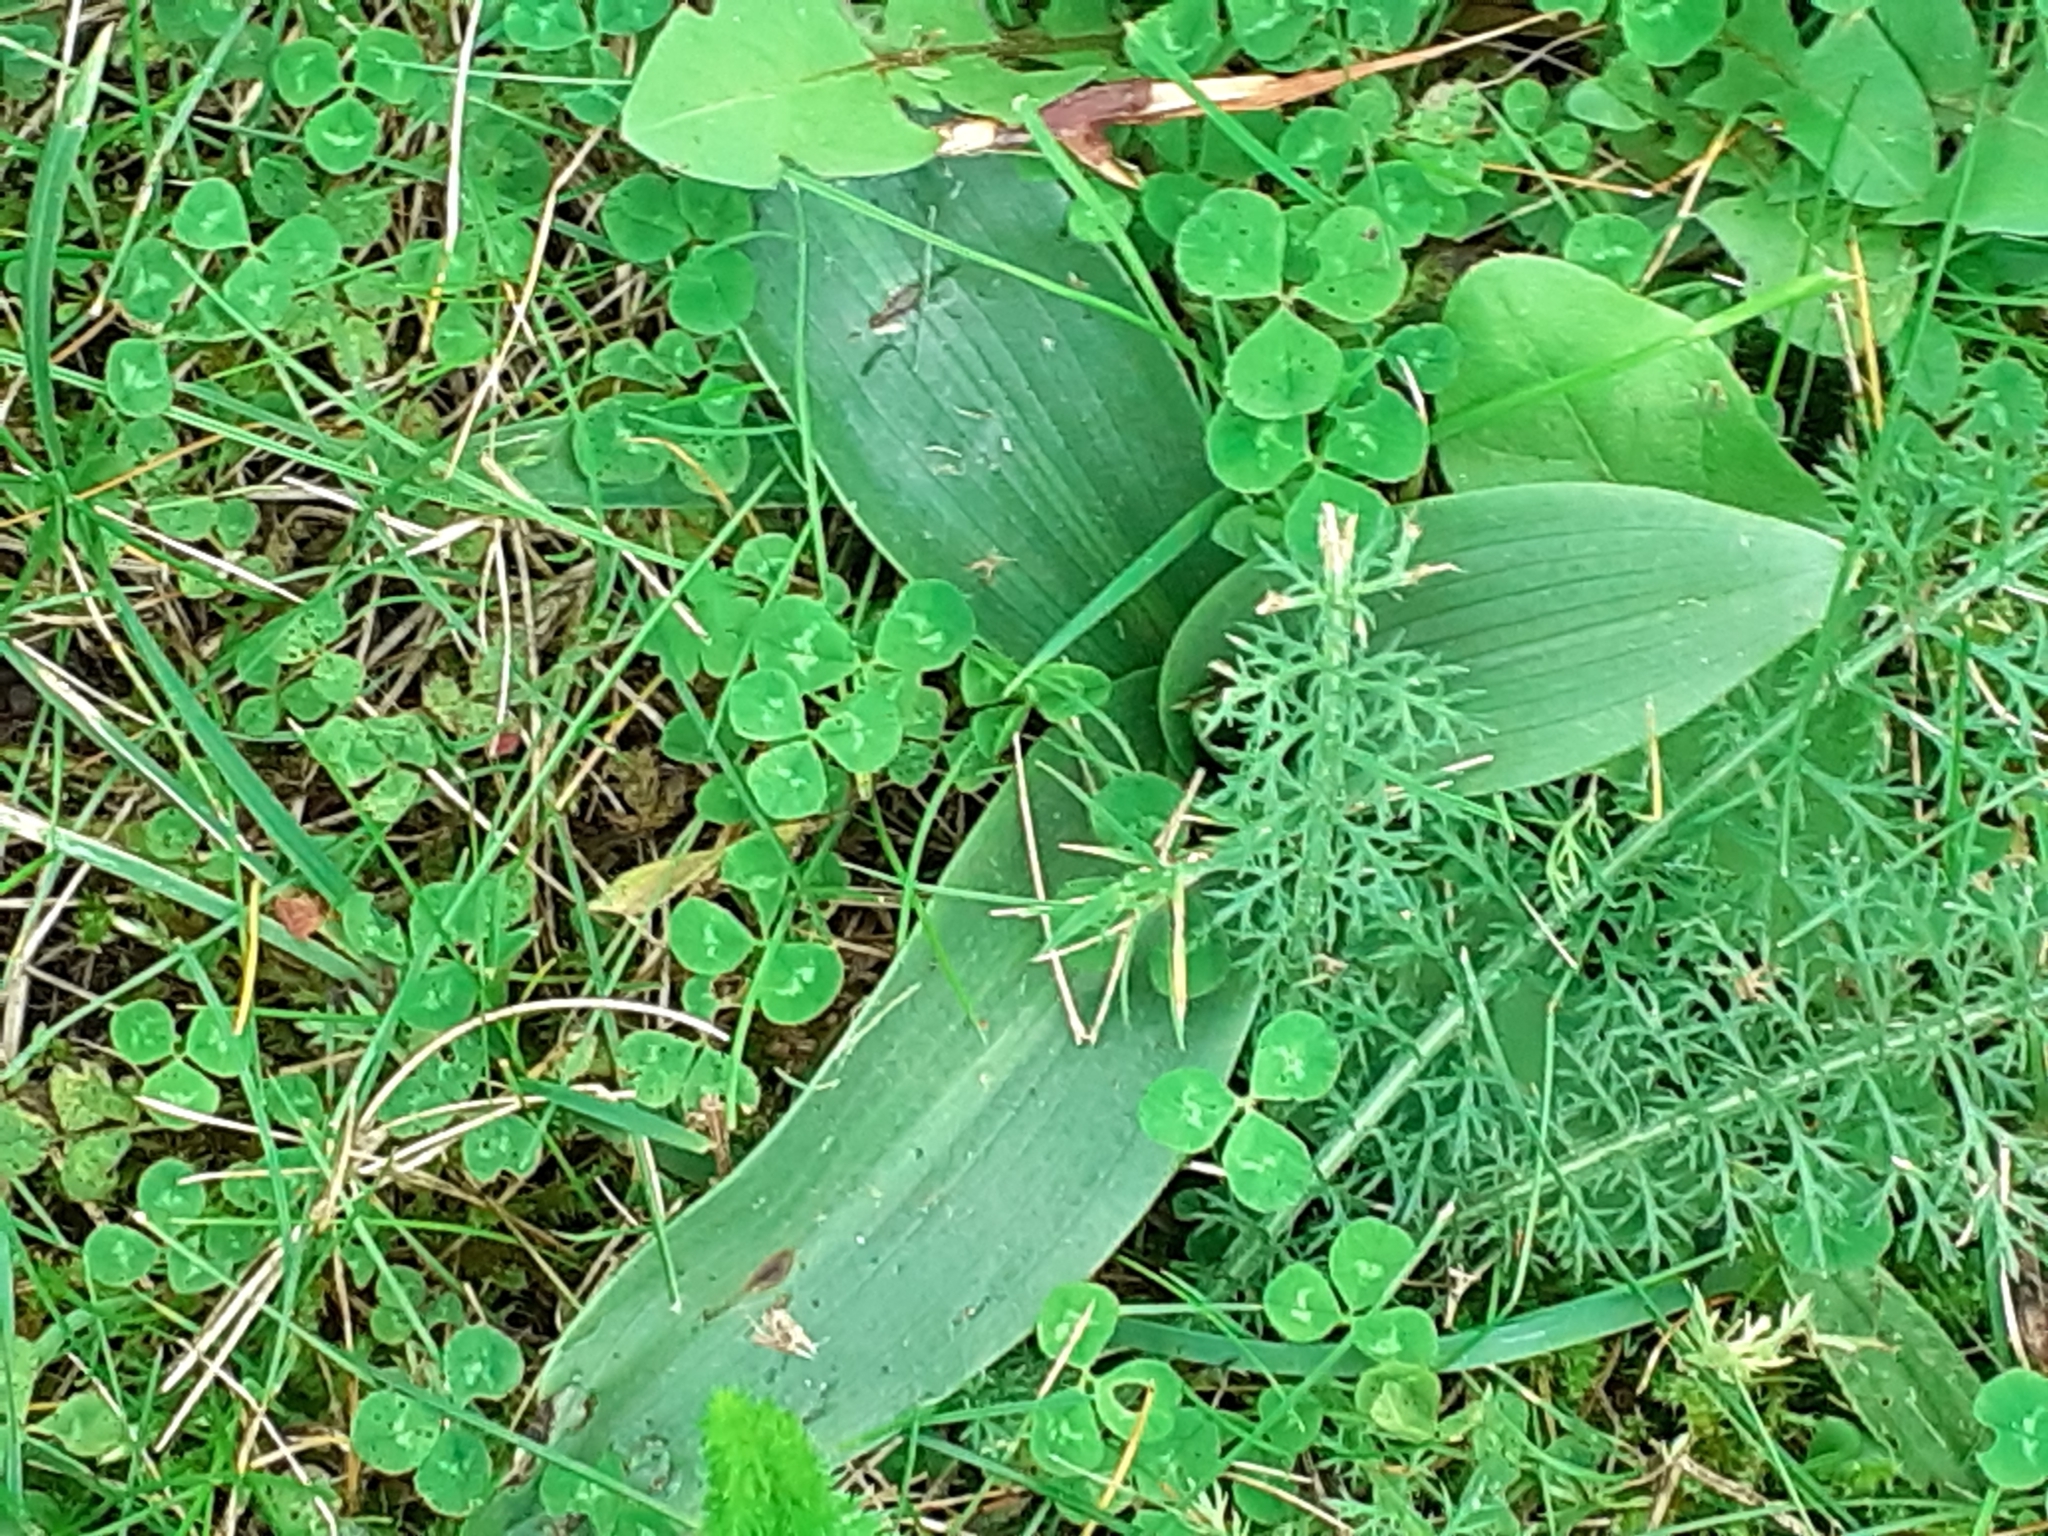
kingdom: Plantae
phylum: Tracheophyta
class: Liliopsida
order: Asparagales
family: Orchidaceae
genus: Ophrys
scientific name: Ophrys apifera
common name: Bee orchid
